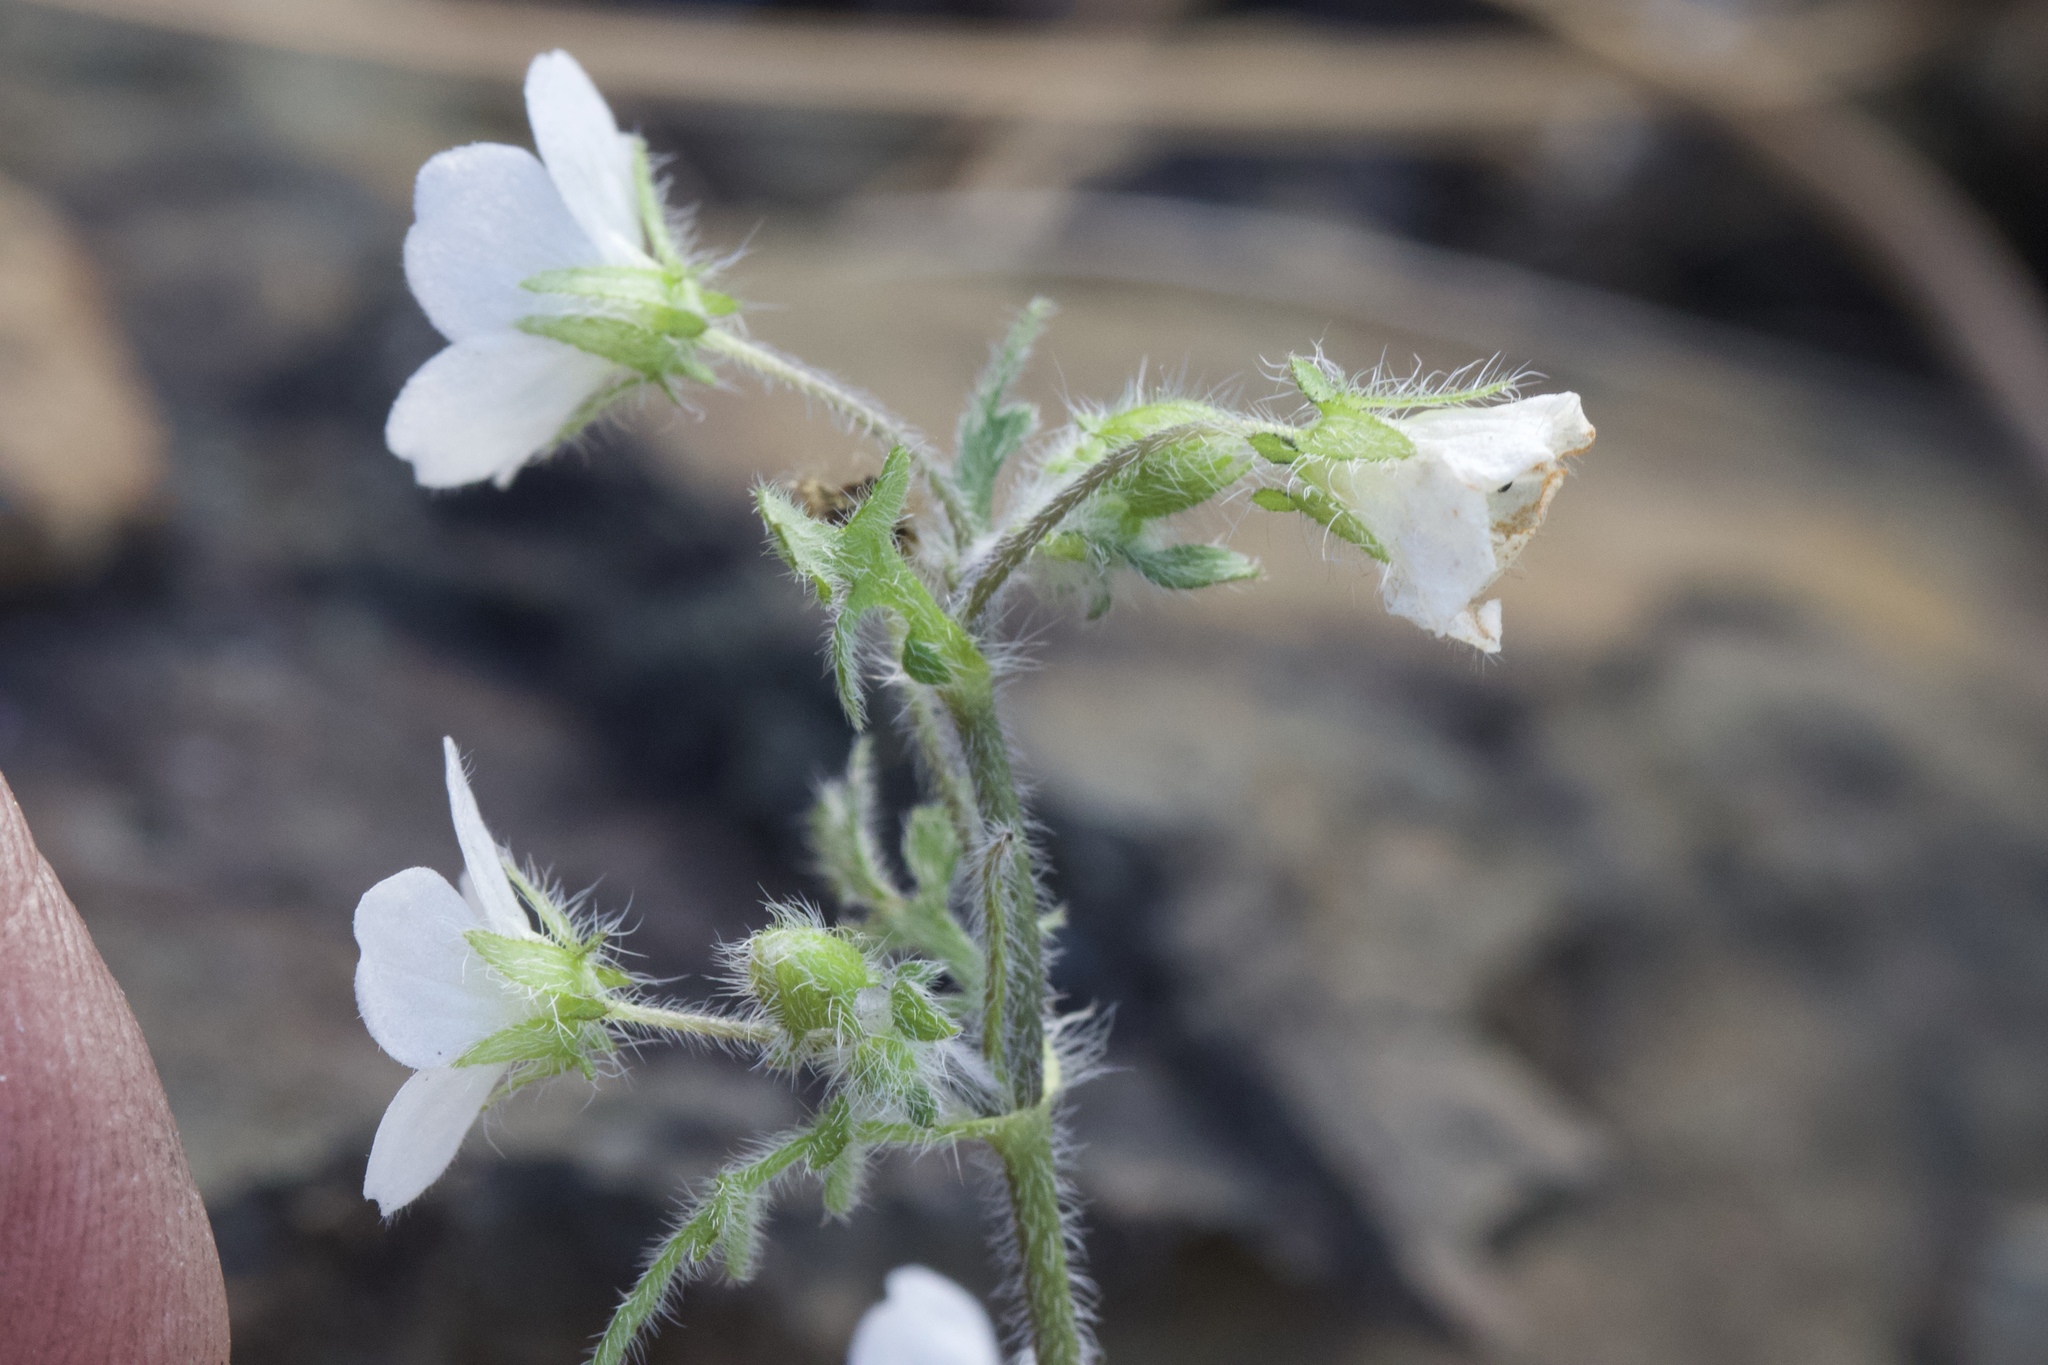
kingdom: Plantae
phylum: Tracheophyta
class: Magnoliopsida
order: Boraginales
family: Hydrophyllaceae
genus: Nemophila
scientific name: Nemophila heterophylla
